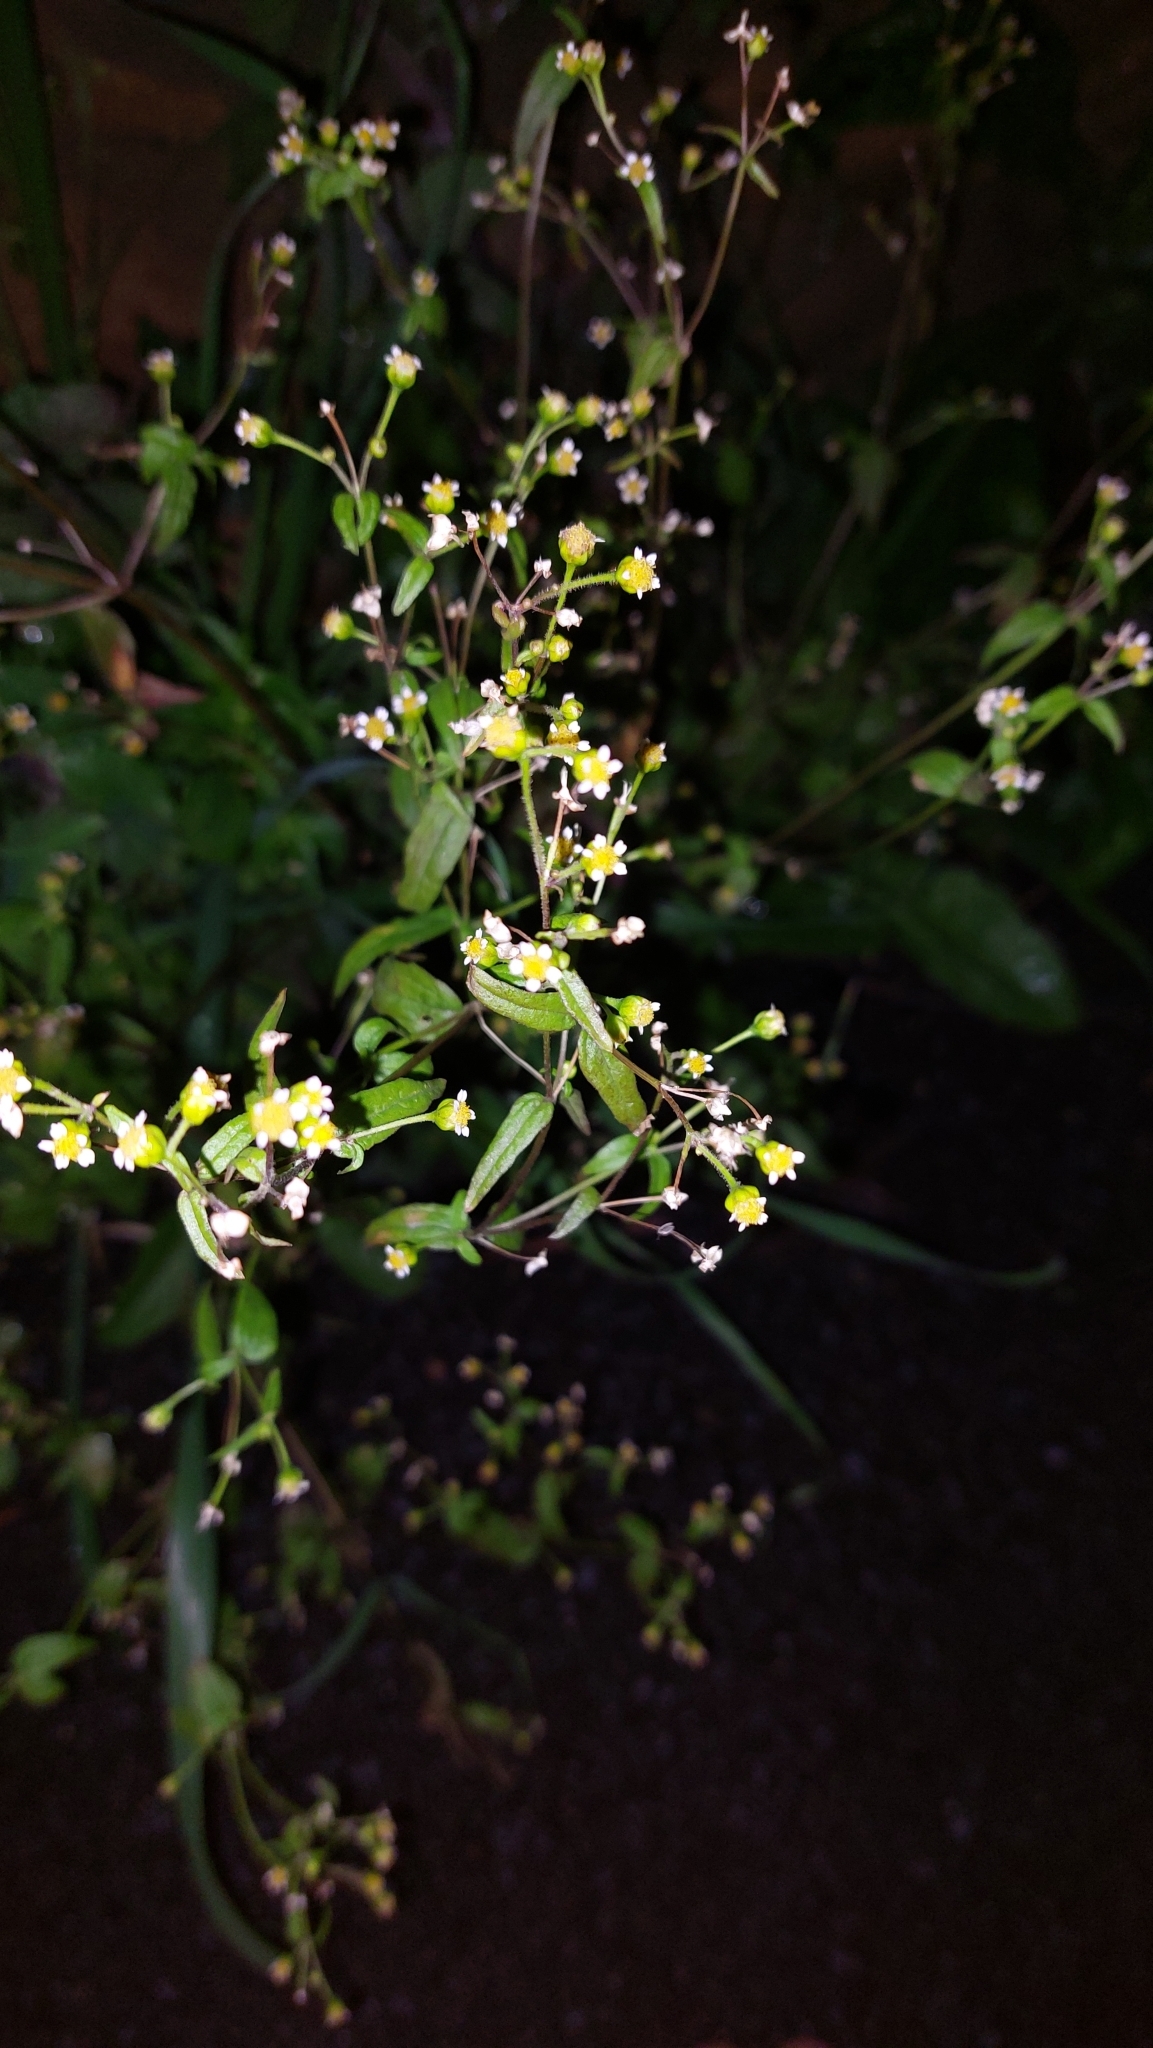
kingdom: Plantae
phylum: Tracheophyta
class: Magnoliopsida
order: Asterales
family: Asteraceae
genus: Galinsoga
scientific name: Galinsoga quadriradiata
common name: Shaggy soldier
